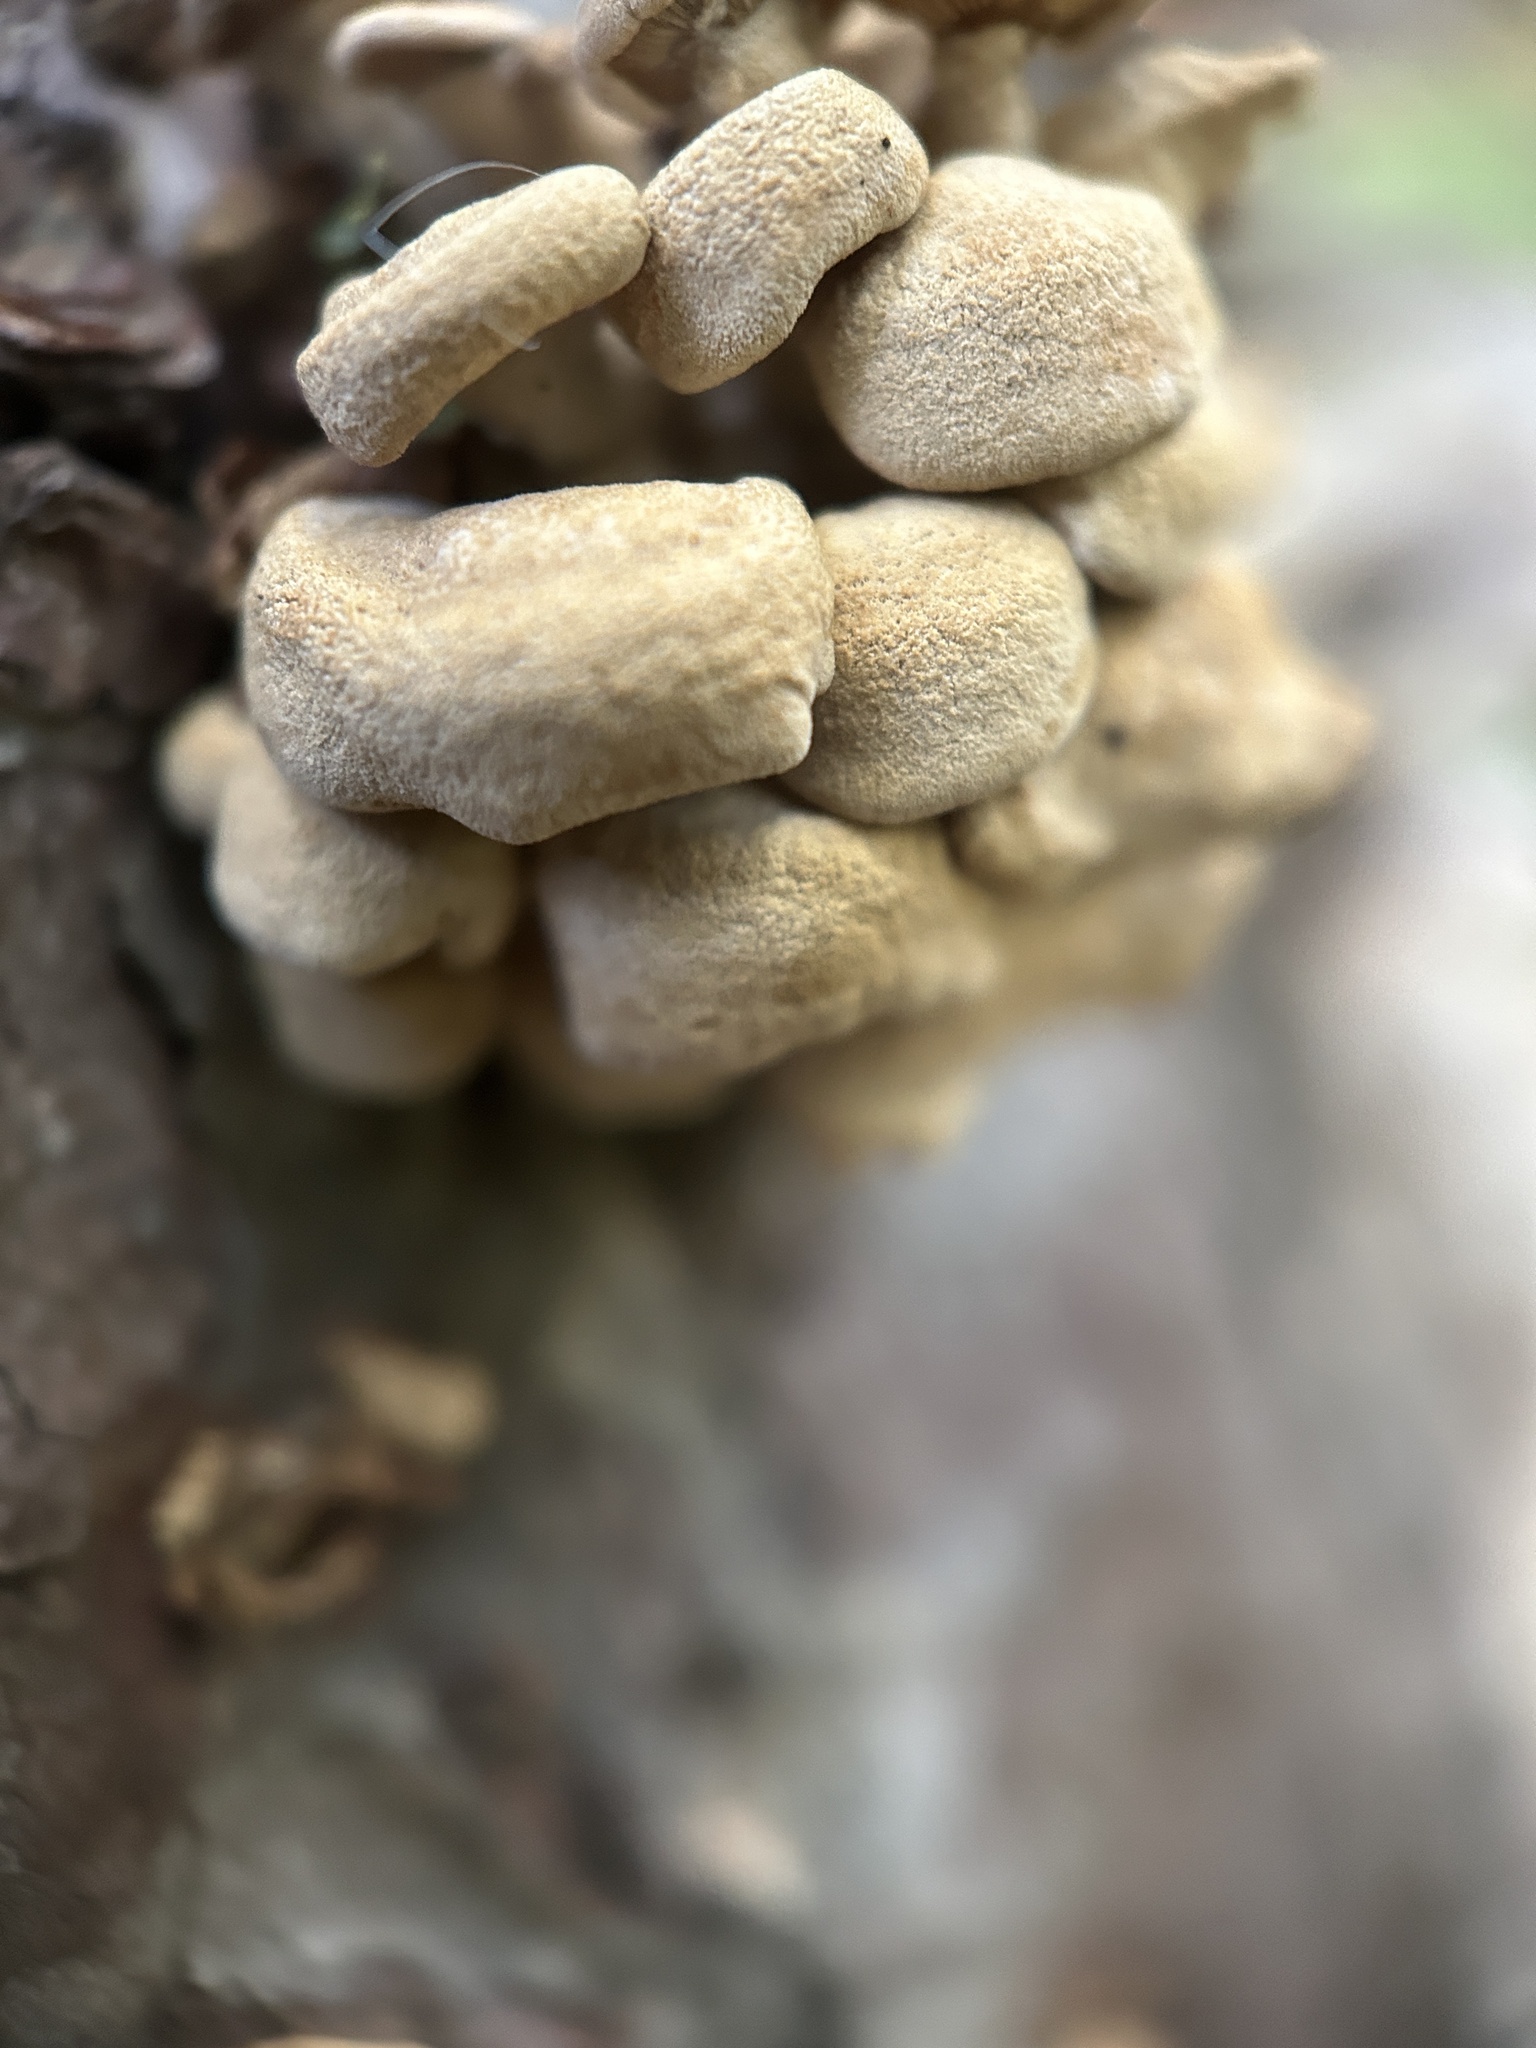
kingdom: Fungi
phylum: Basidiomycota
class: Agaricomycetes
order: Agaricales
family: Mycenaceae
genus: Panellus
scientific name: Panellus stipticus
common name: Bitter oysterling
